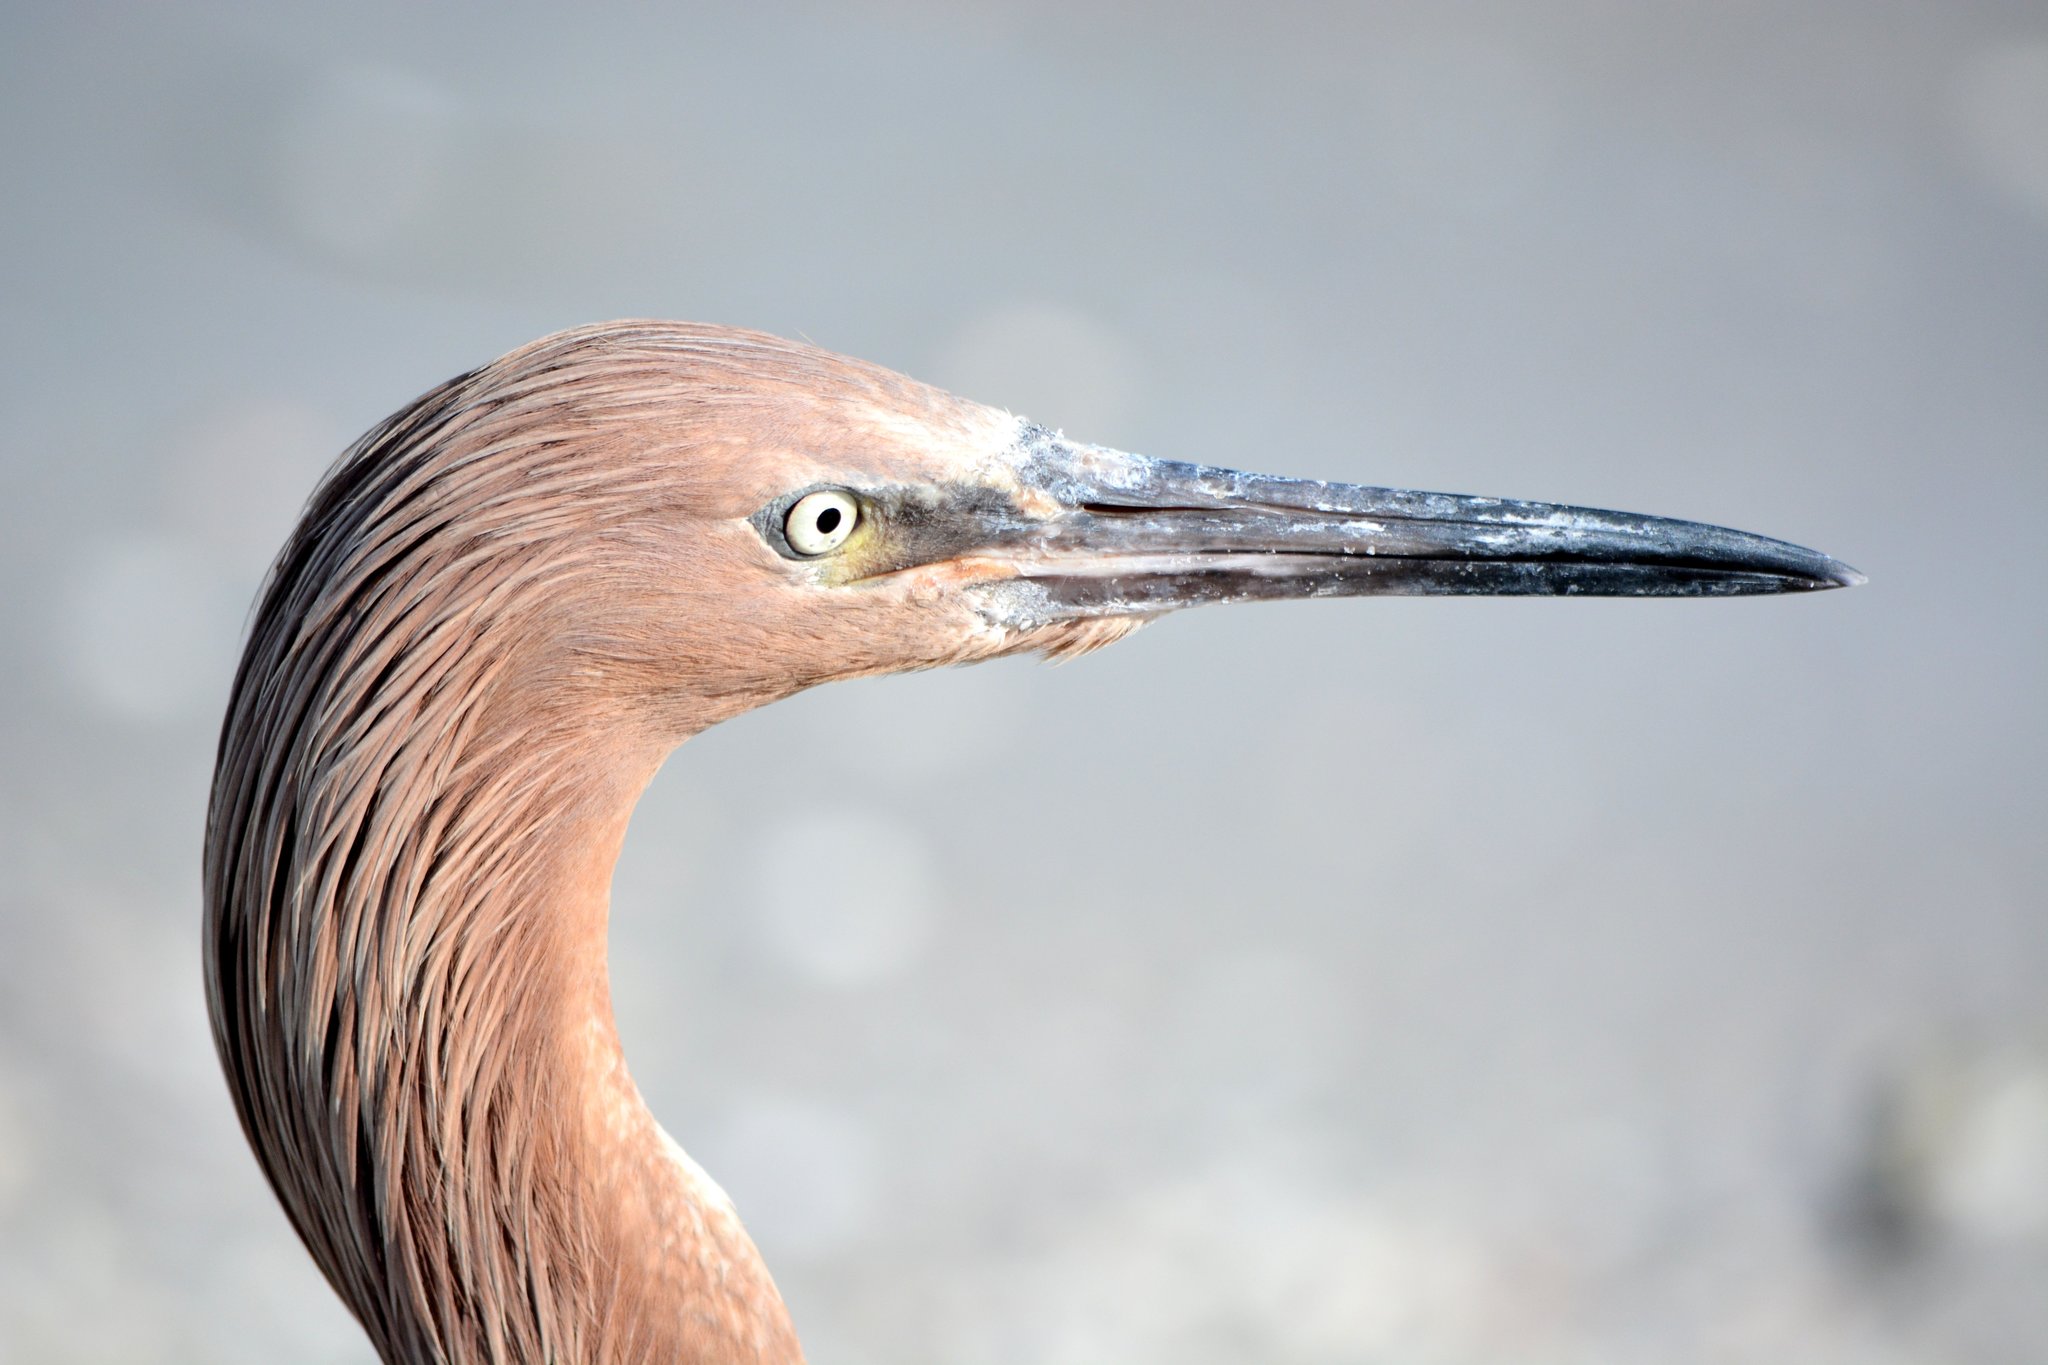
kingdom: Animalia
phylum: Chordata
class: Aves
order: Pelecaniformes
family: Ardeidae
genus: Egretta
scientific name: Egretta rufescens
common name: Reddish egret
